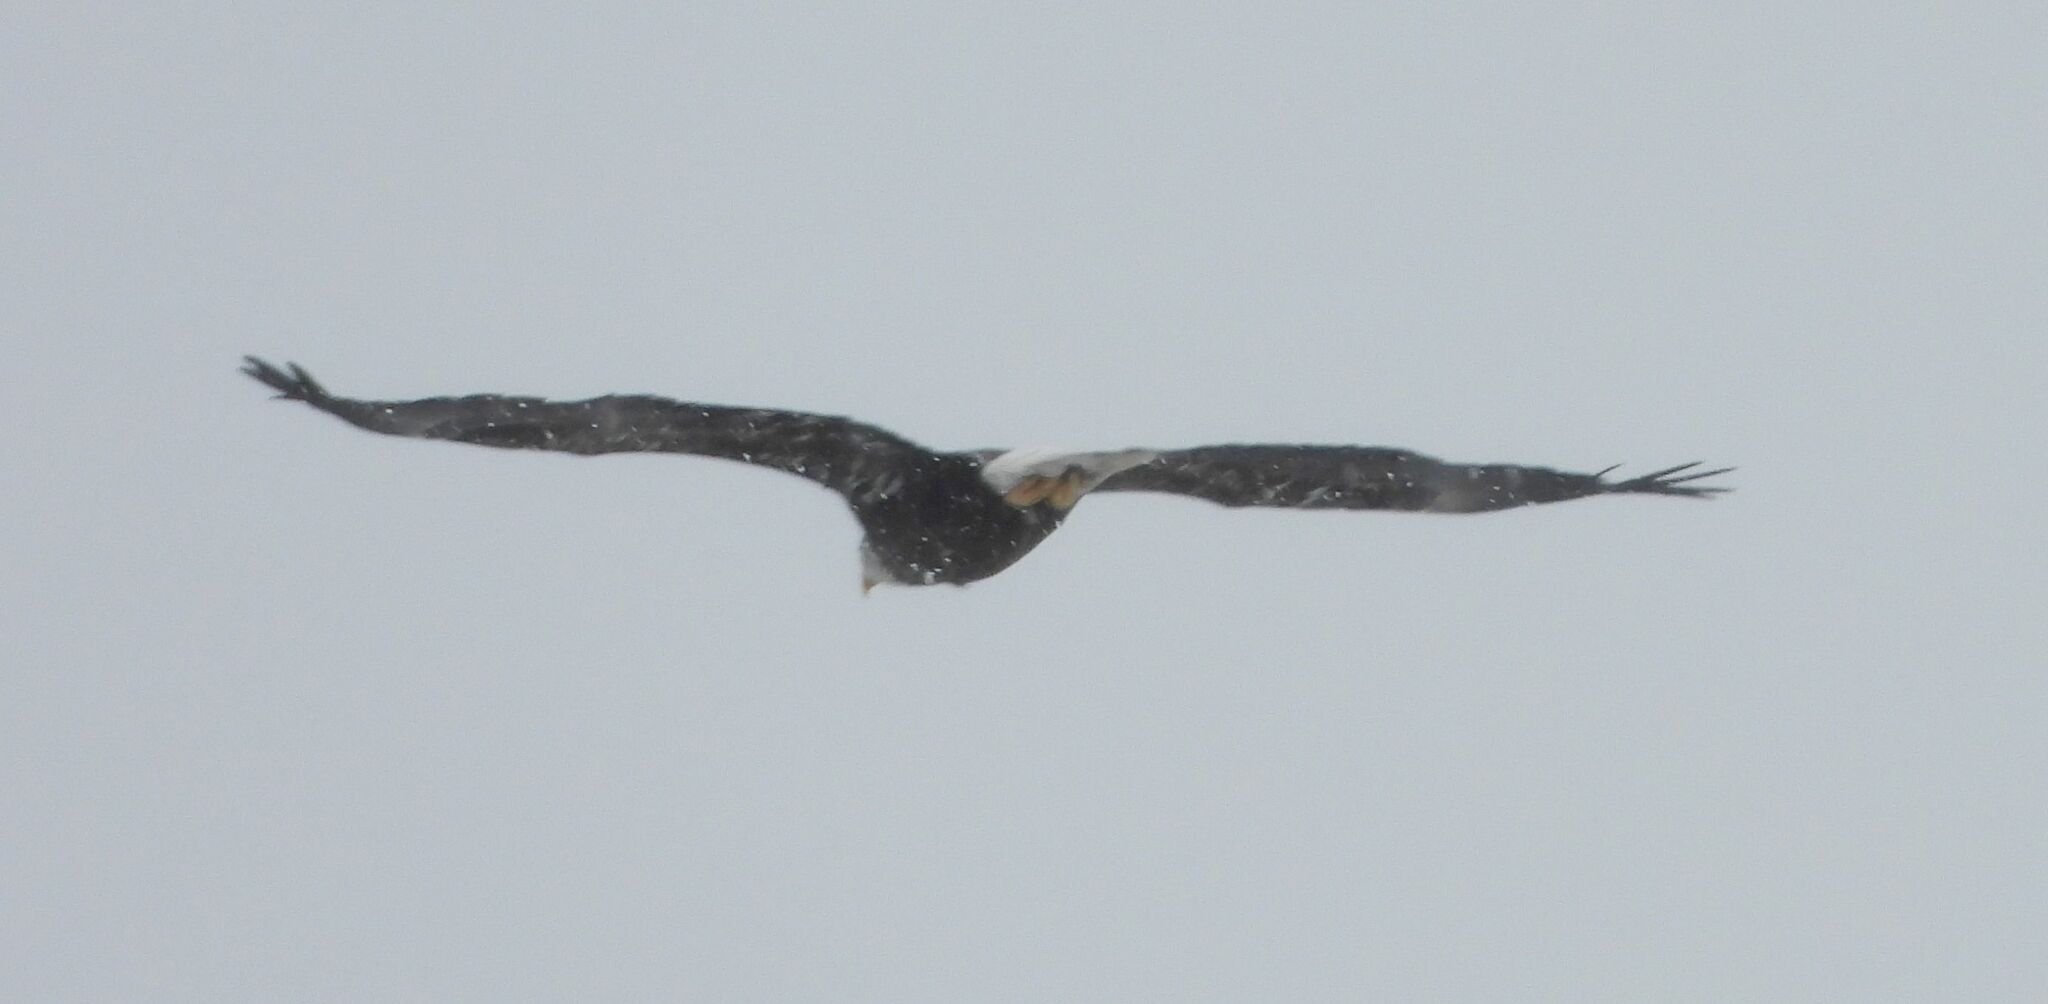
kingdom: Animalia
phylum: Chordata
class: Aves
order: Accipitriformes
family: Accipitridae
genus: Haliaeetus
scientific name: Haliaeetus leucocephalus
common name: Bald eagle
